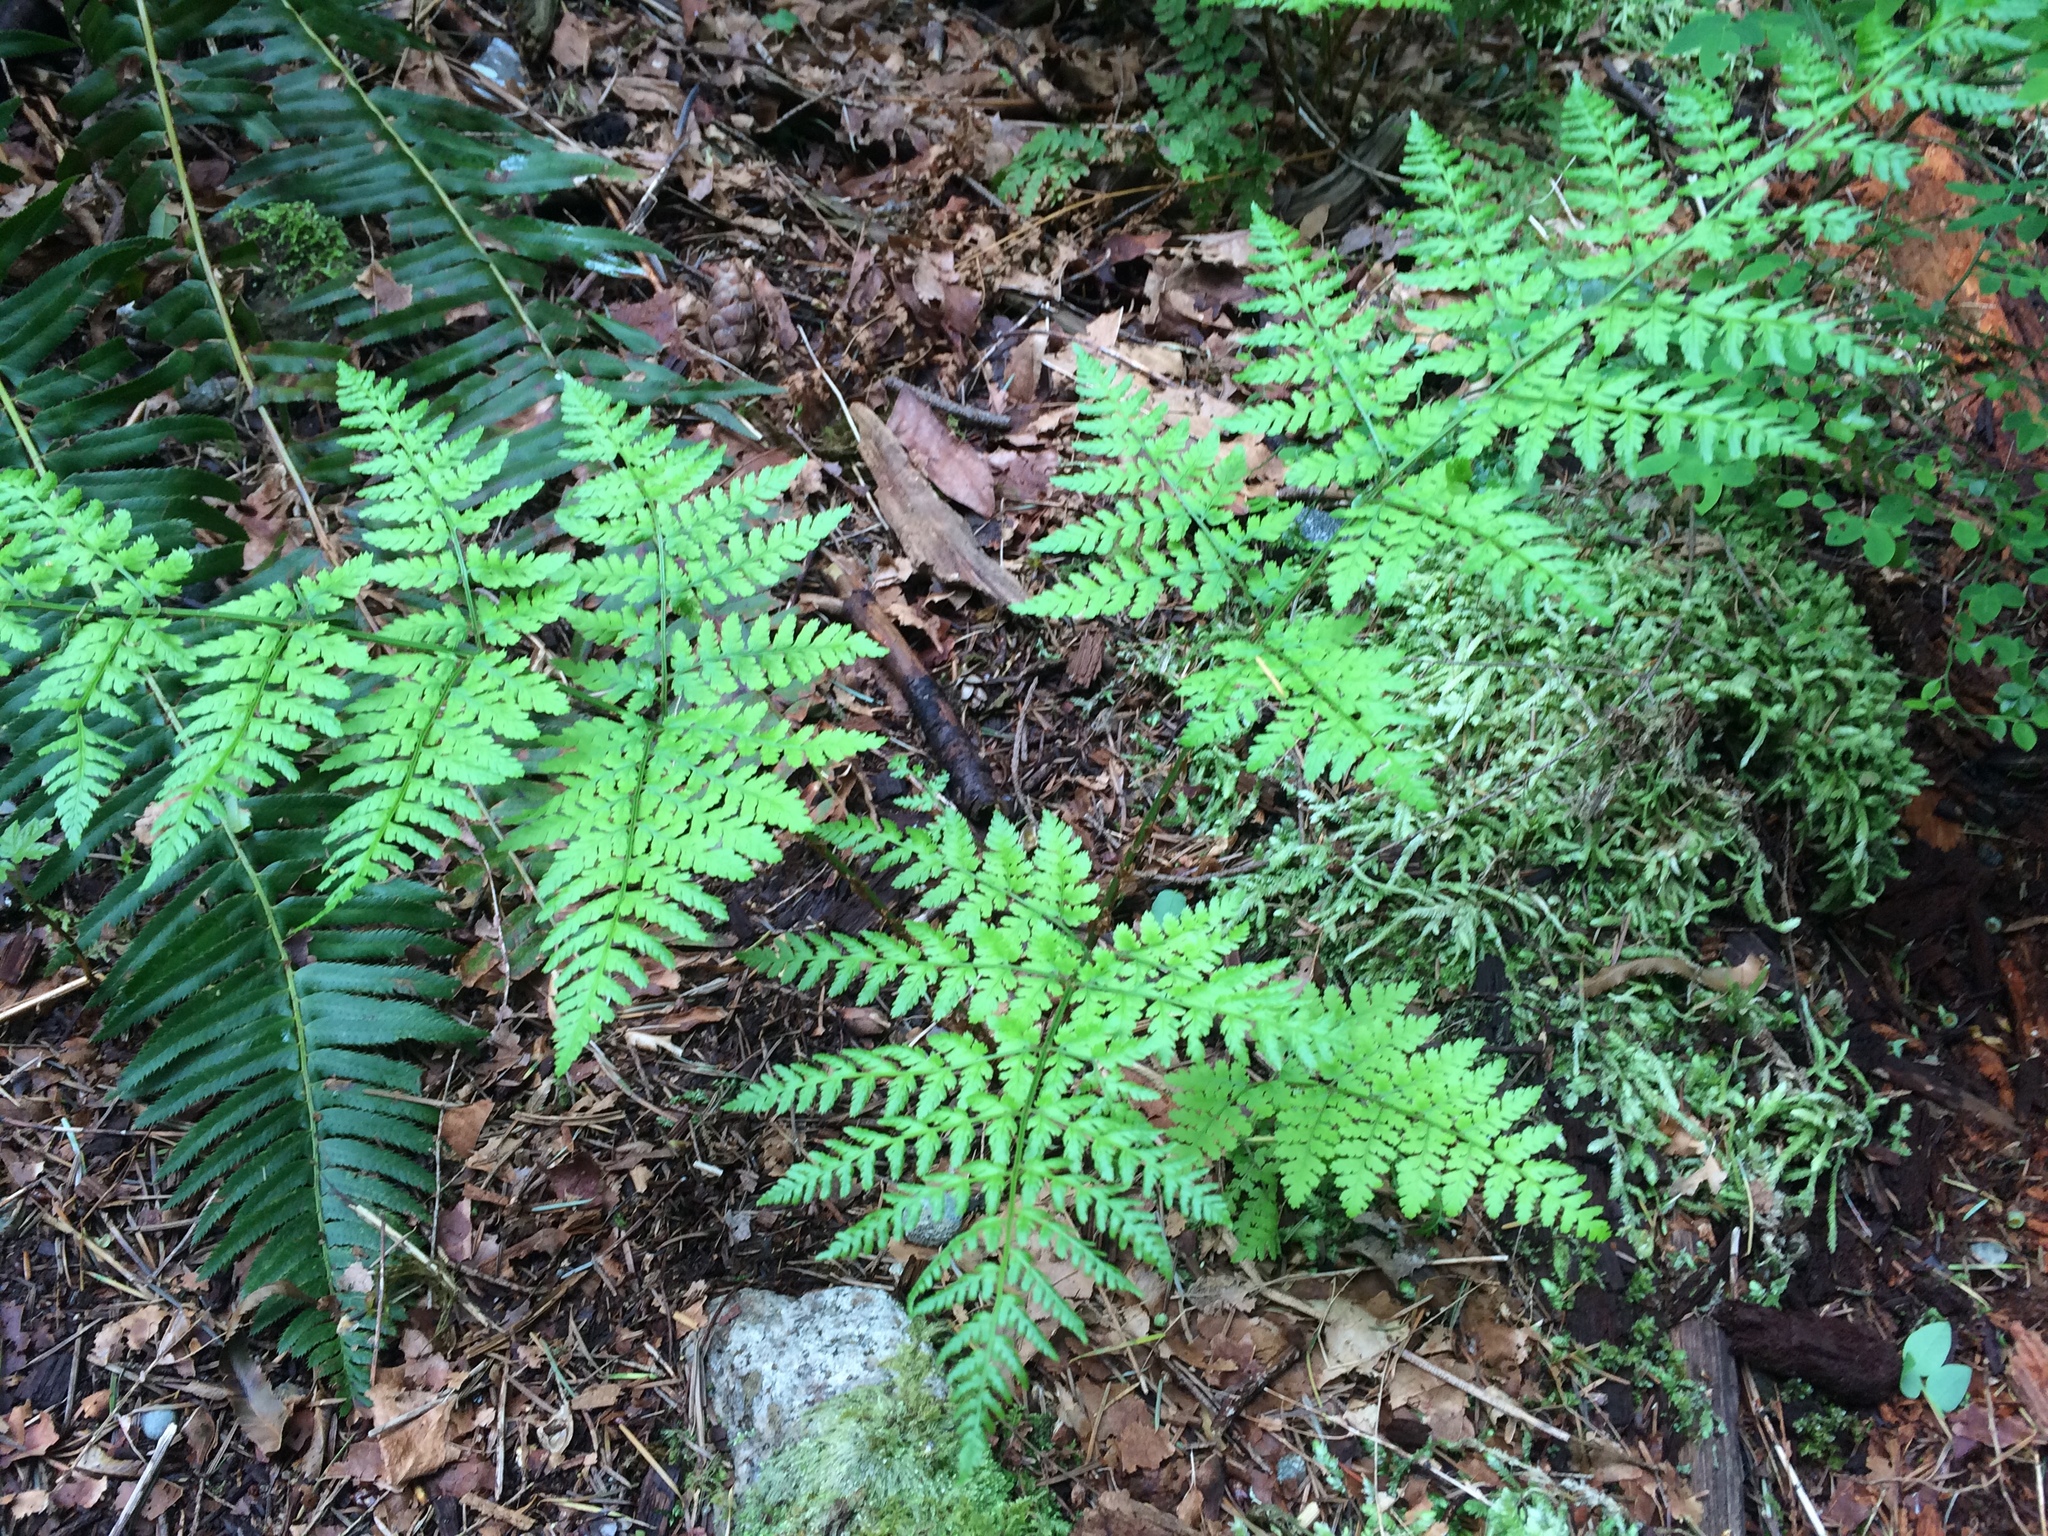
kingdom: Plantae
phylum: Tracheophyta
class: Polypodiopsida
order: Polypodiales
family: Dryopteridaceae
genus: Dryopteris
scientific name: Dryopteris expansa
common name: Northern buckler fern
